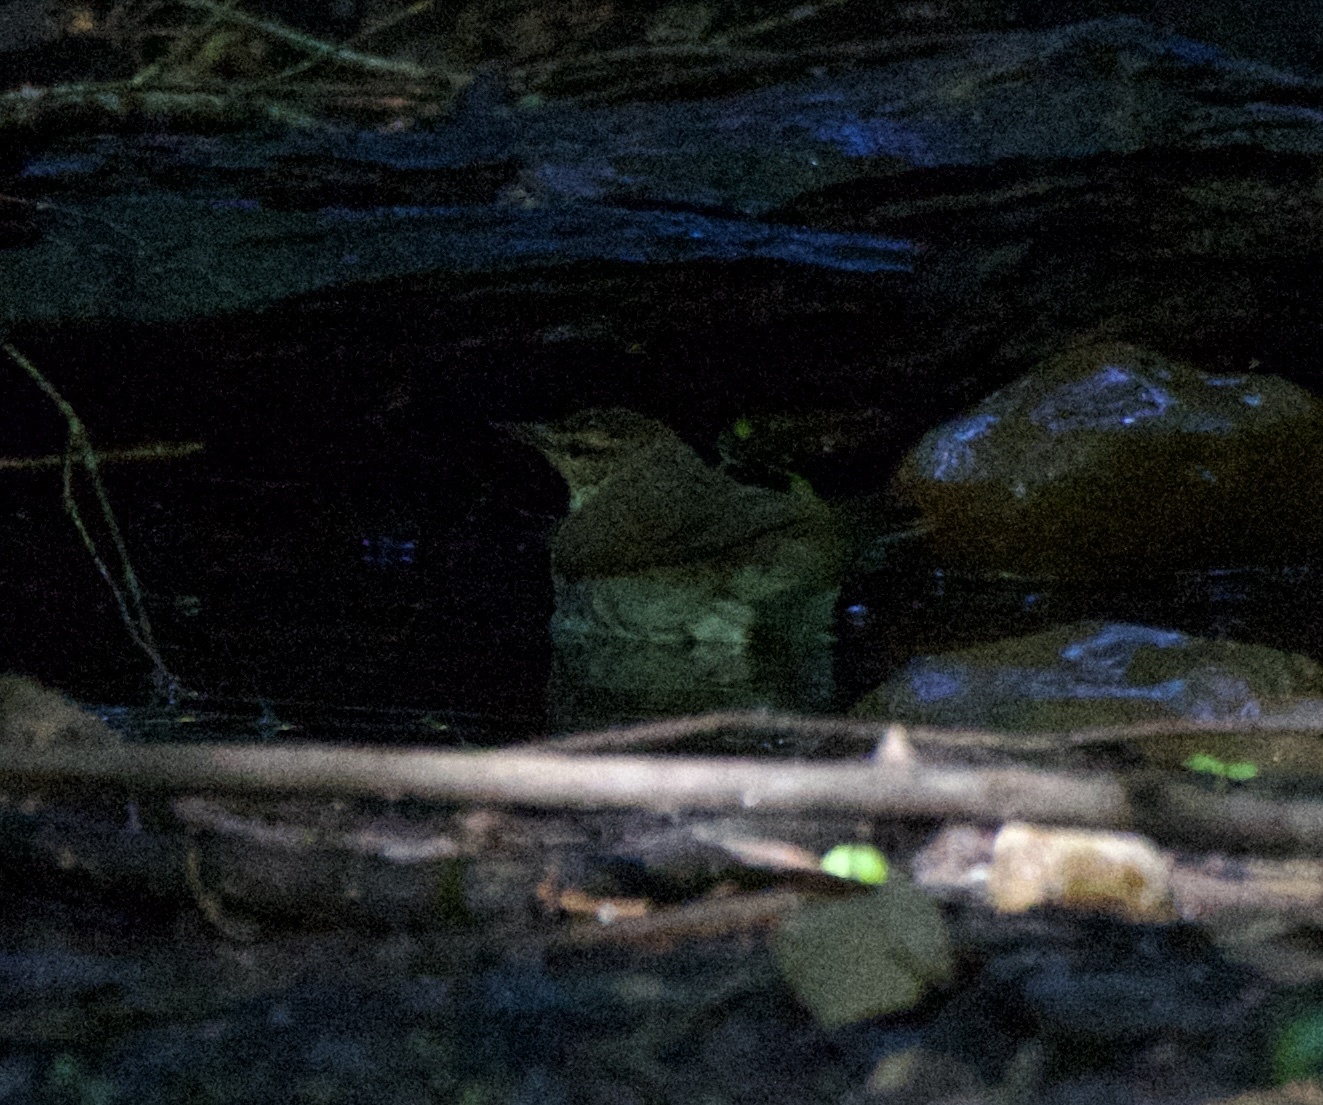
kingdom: Animalia
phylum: Chordata
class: Aves
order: Passeriformes
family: Parulidae
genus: Limnothlypis
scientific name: Limnothlypis swainsonii
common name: Swainson's warbler
